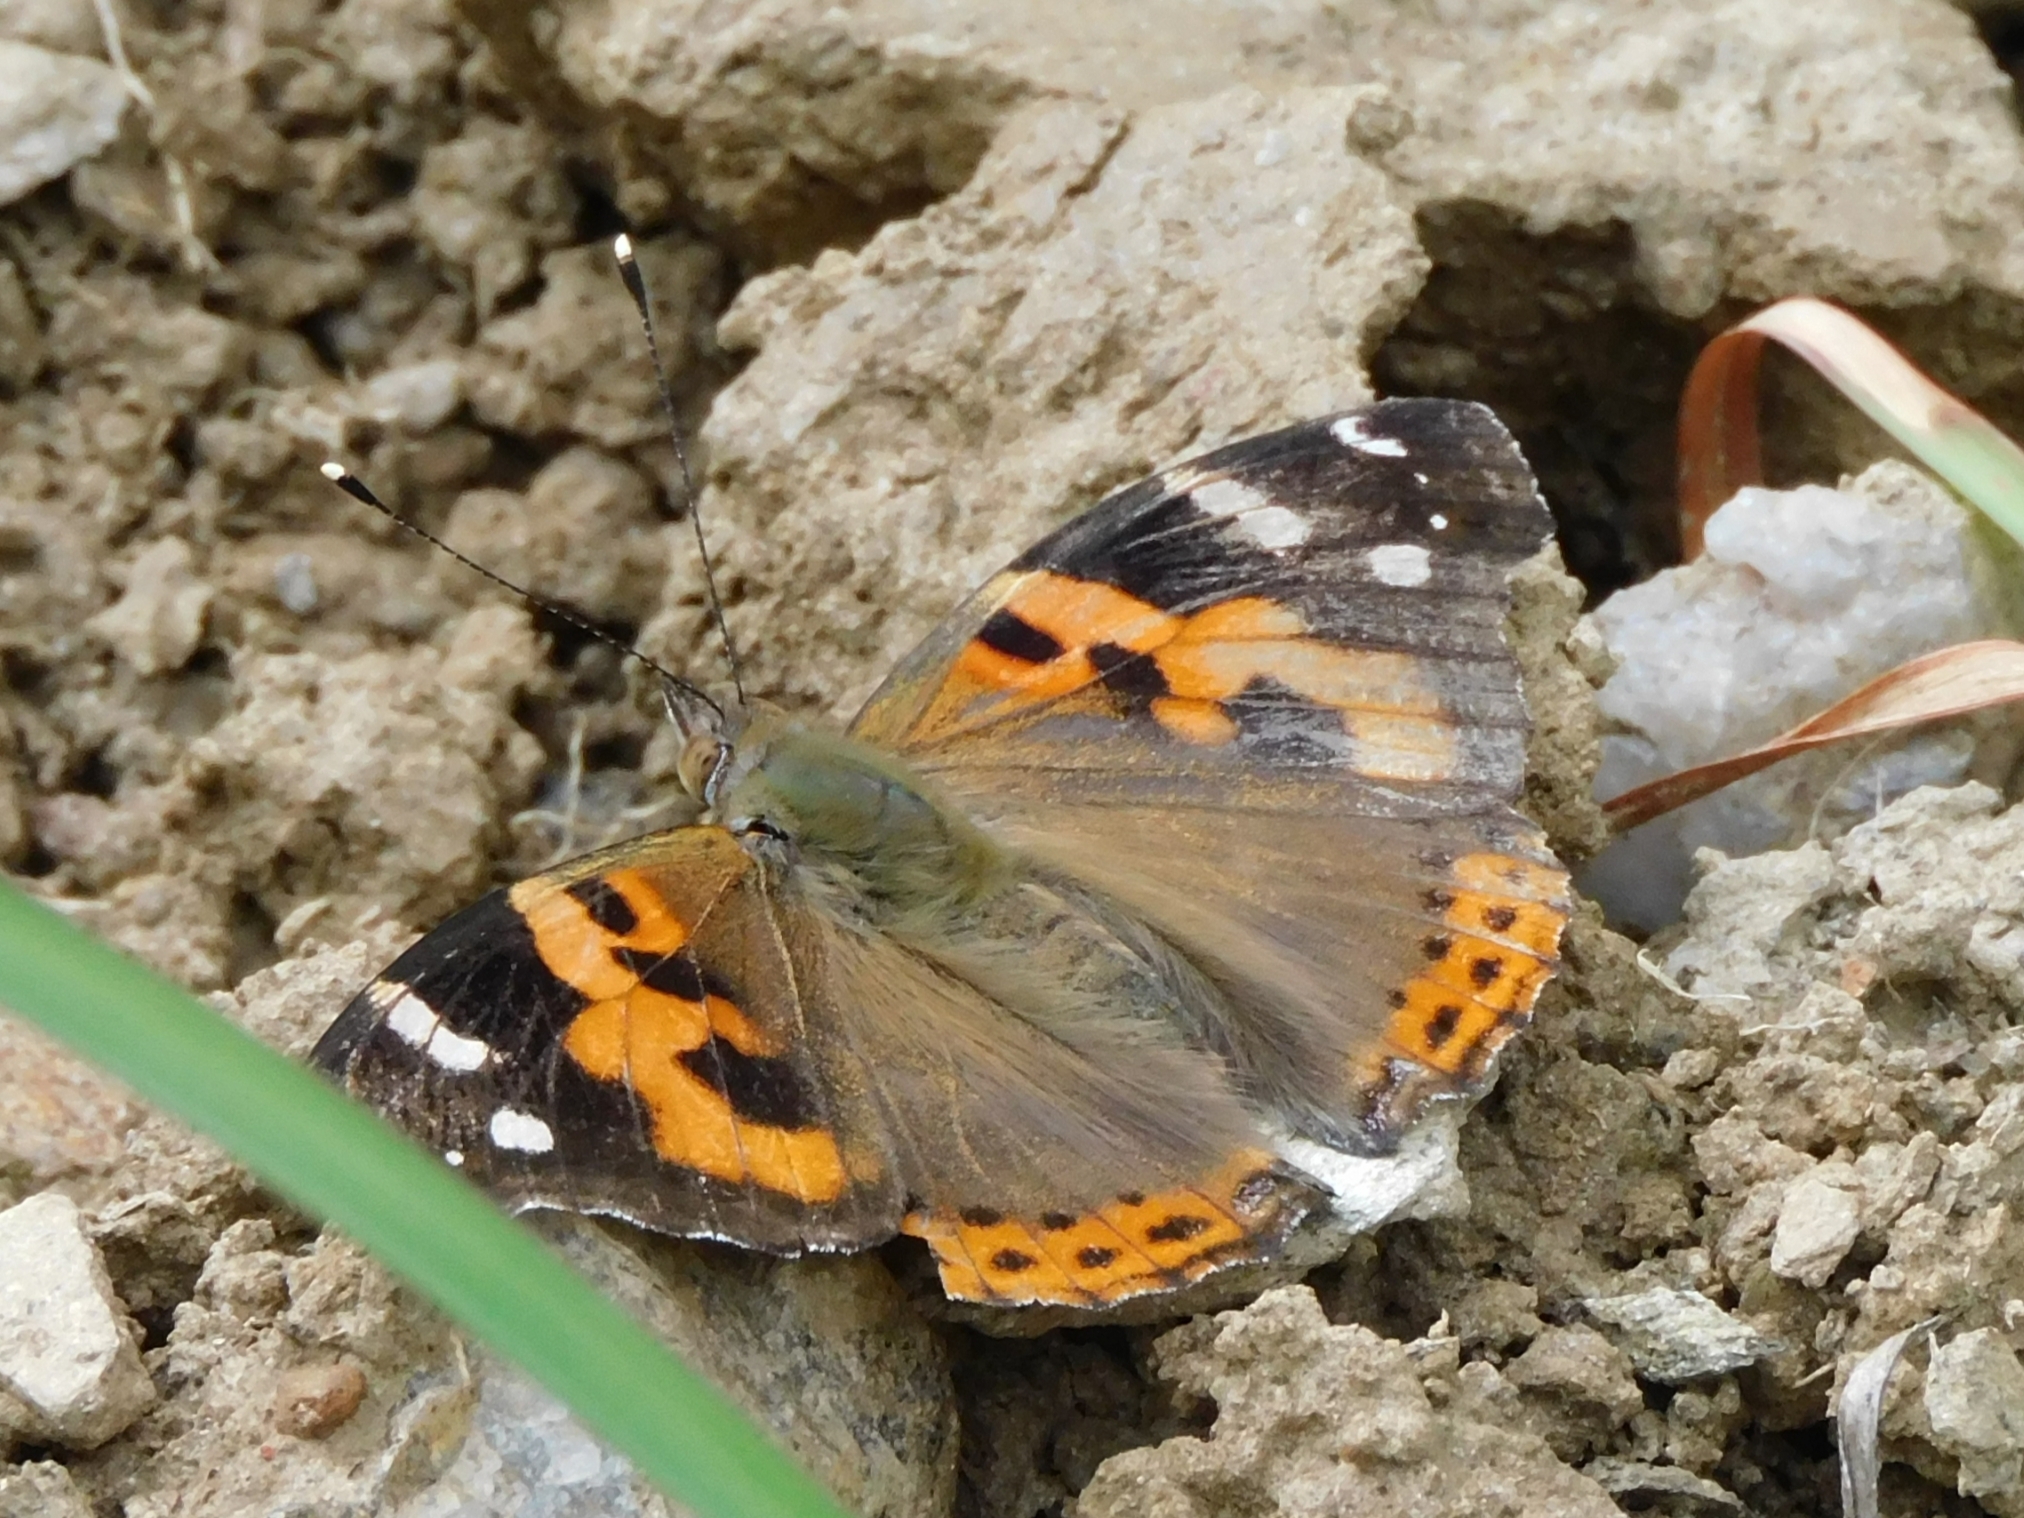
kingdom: Animalia
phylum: Arthropoda
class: Insecta
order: Lepidoptera
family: Nymphalidae
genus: Vanessa
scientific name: Vanessa indica
